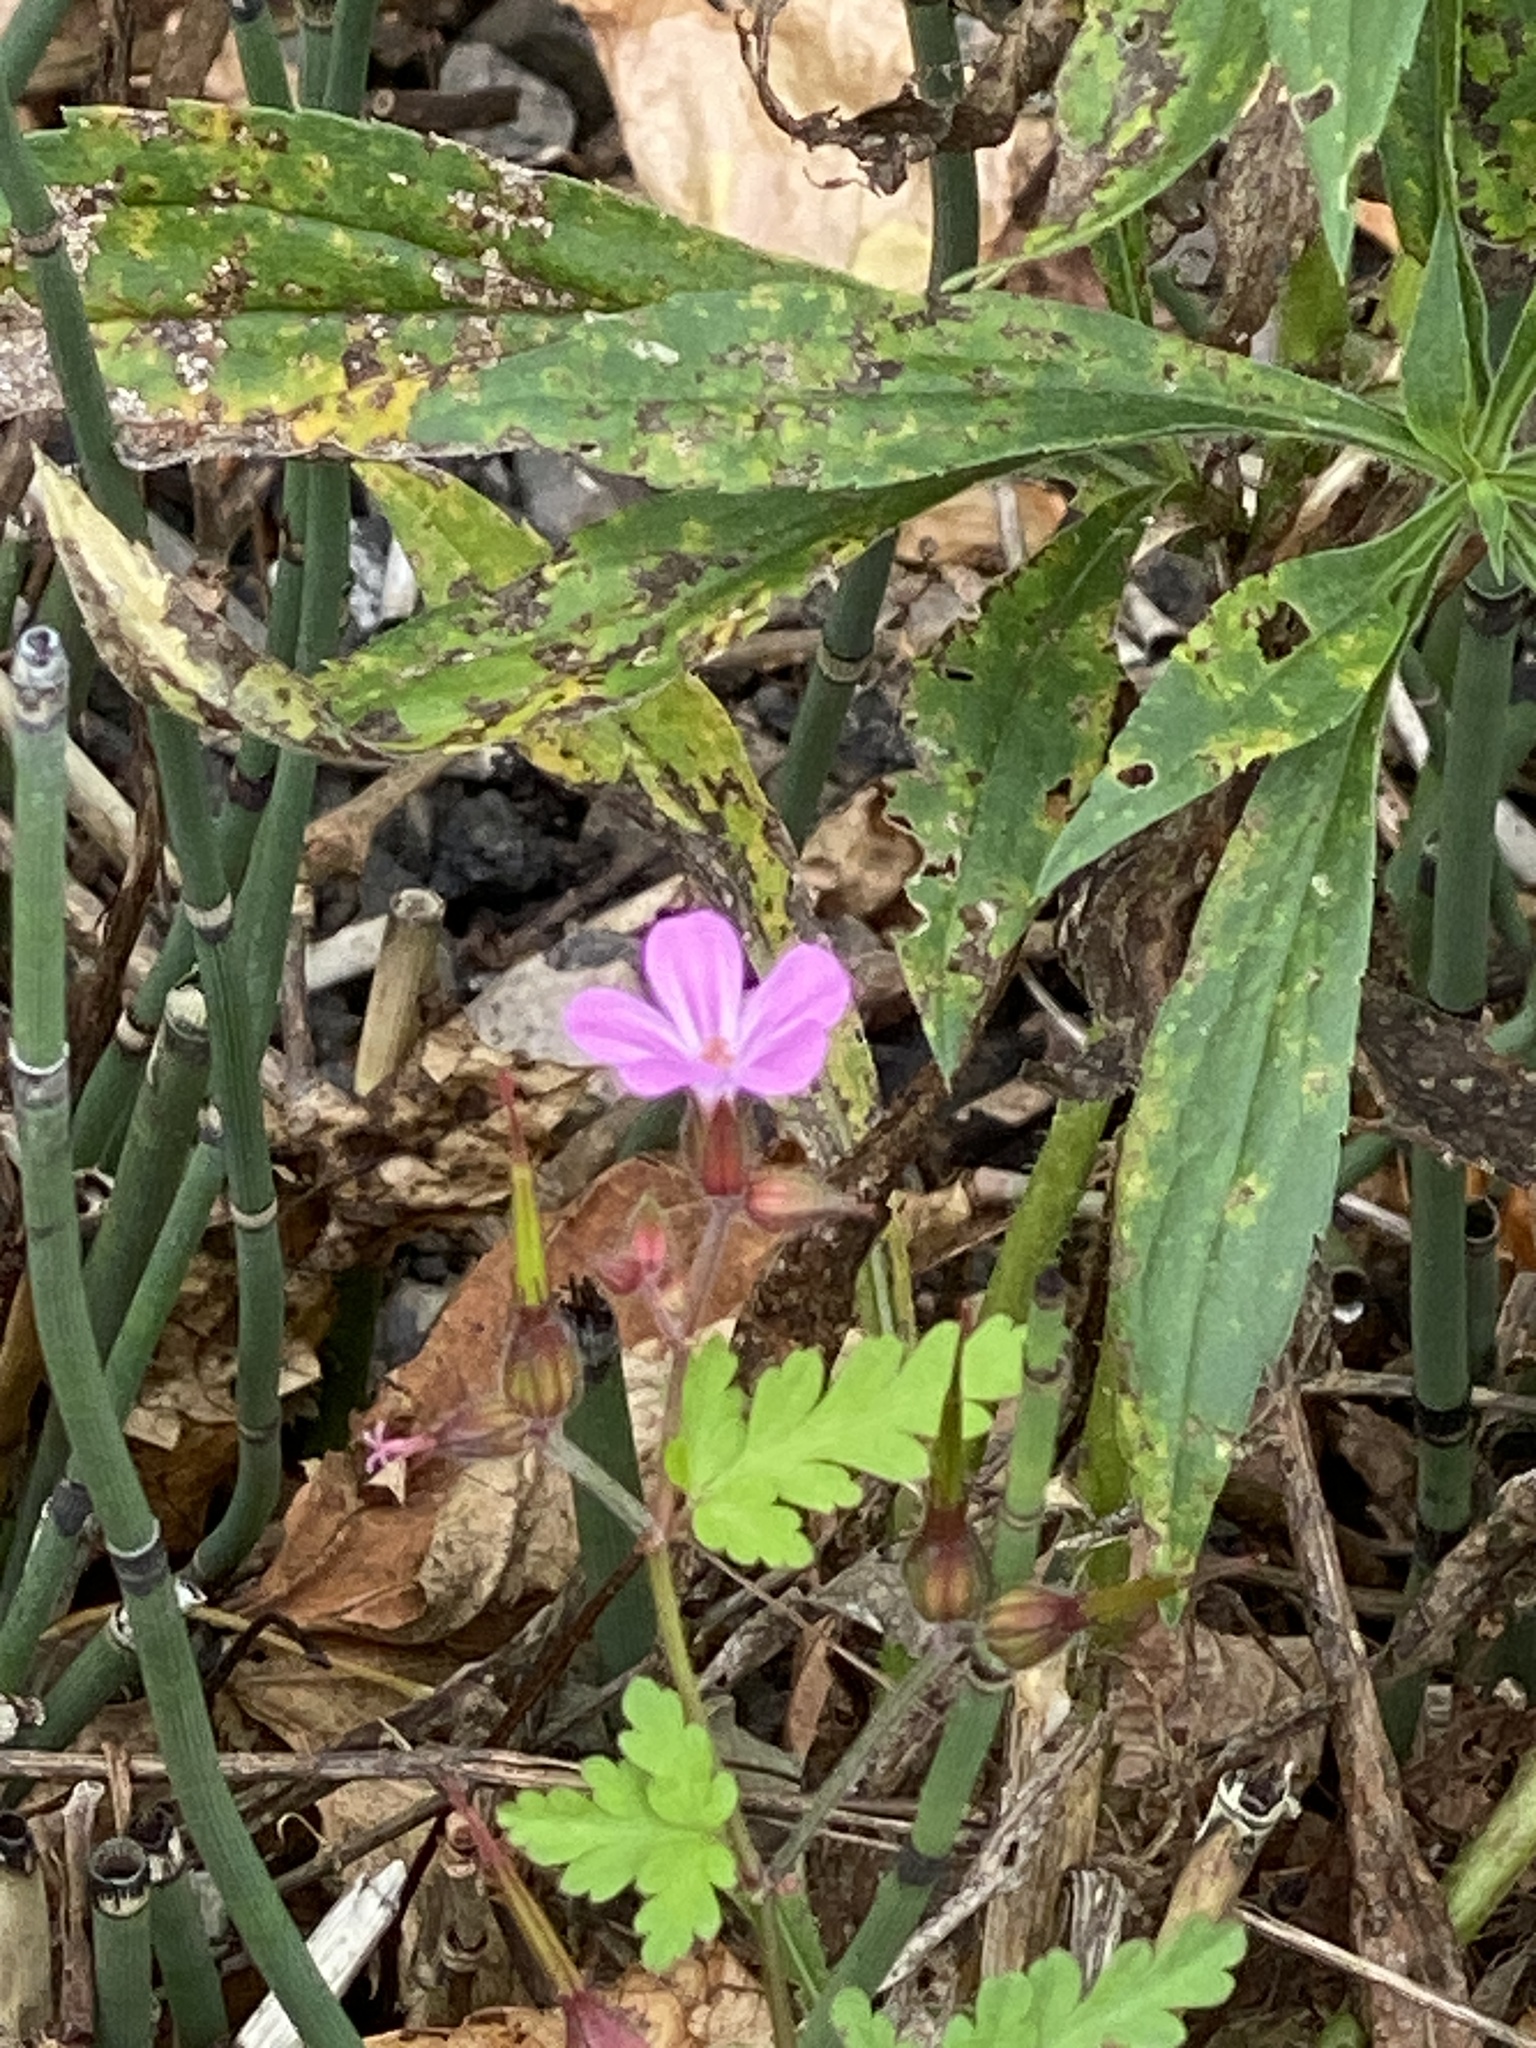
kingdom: Plantae
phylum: Tracheophyta
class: Magnoliopsida
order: Geraniales
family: Geraniaceae
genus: Geranium
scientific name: Geranium robertianum
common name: Herb-robert
